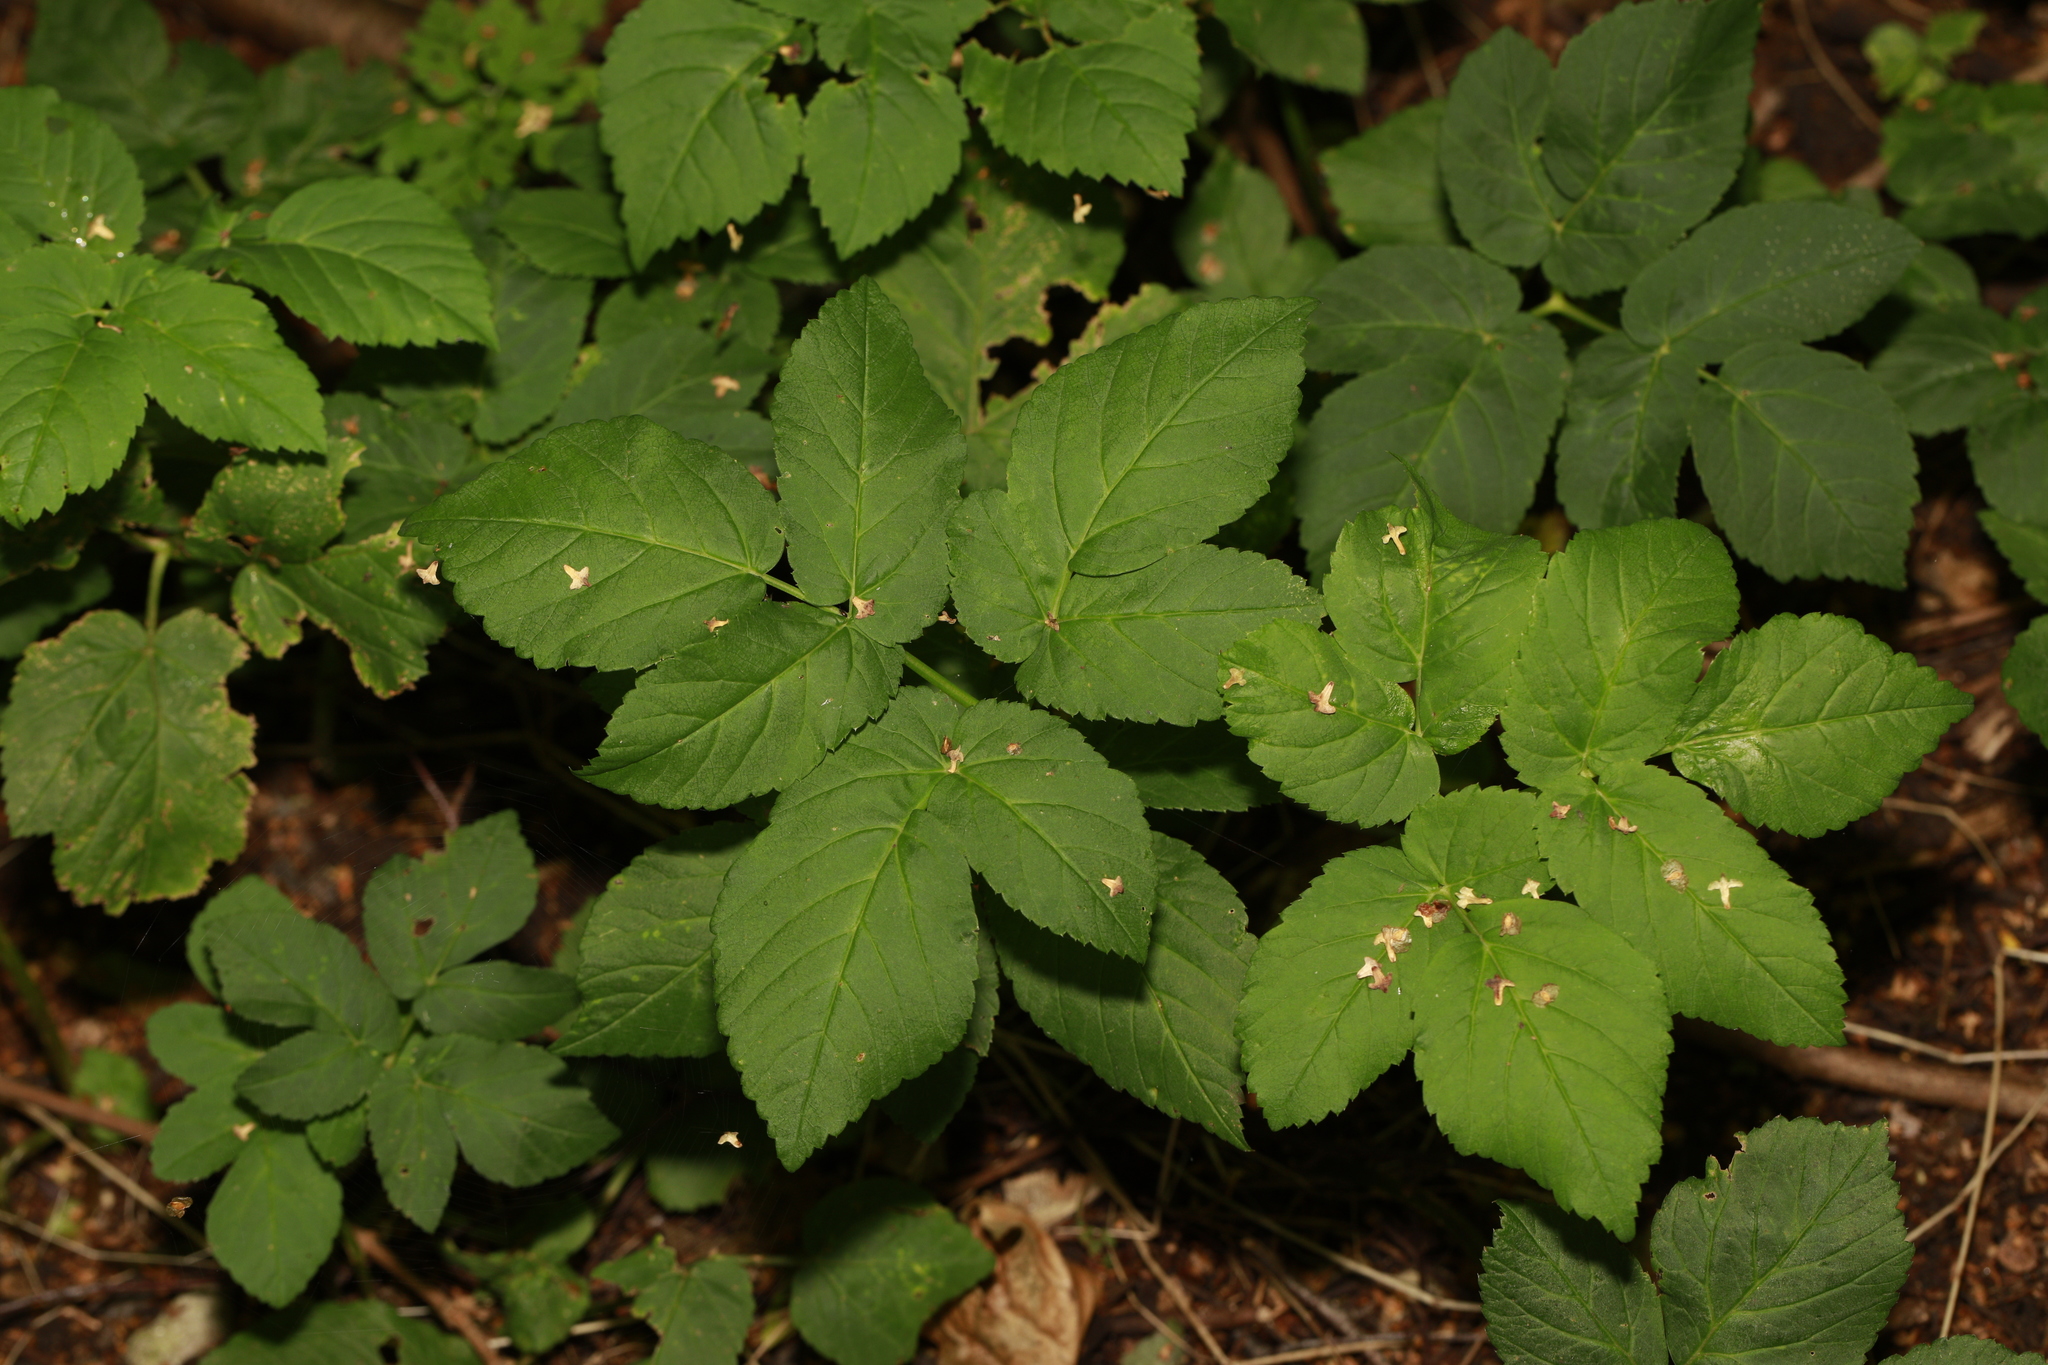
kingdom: Plantae
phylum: Tracheophyta
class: Magnoliopsida
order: Apiales
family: Apiaceae
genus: Aegopodium
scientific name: Aegopodium podagraria
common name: Ground-elder
